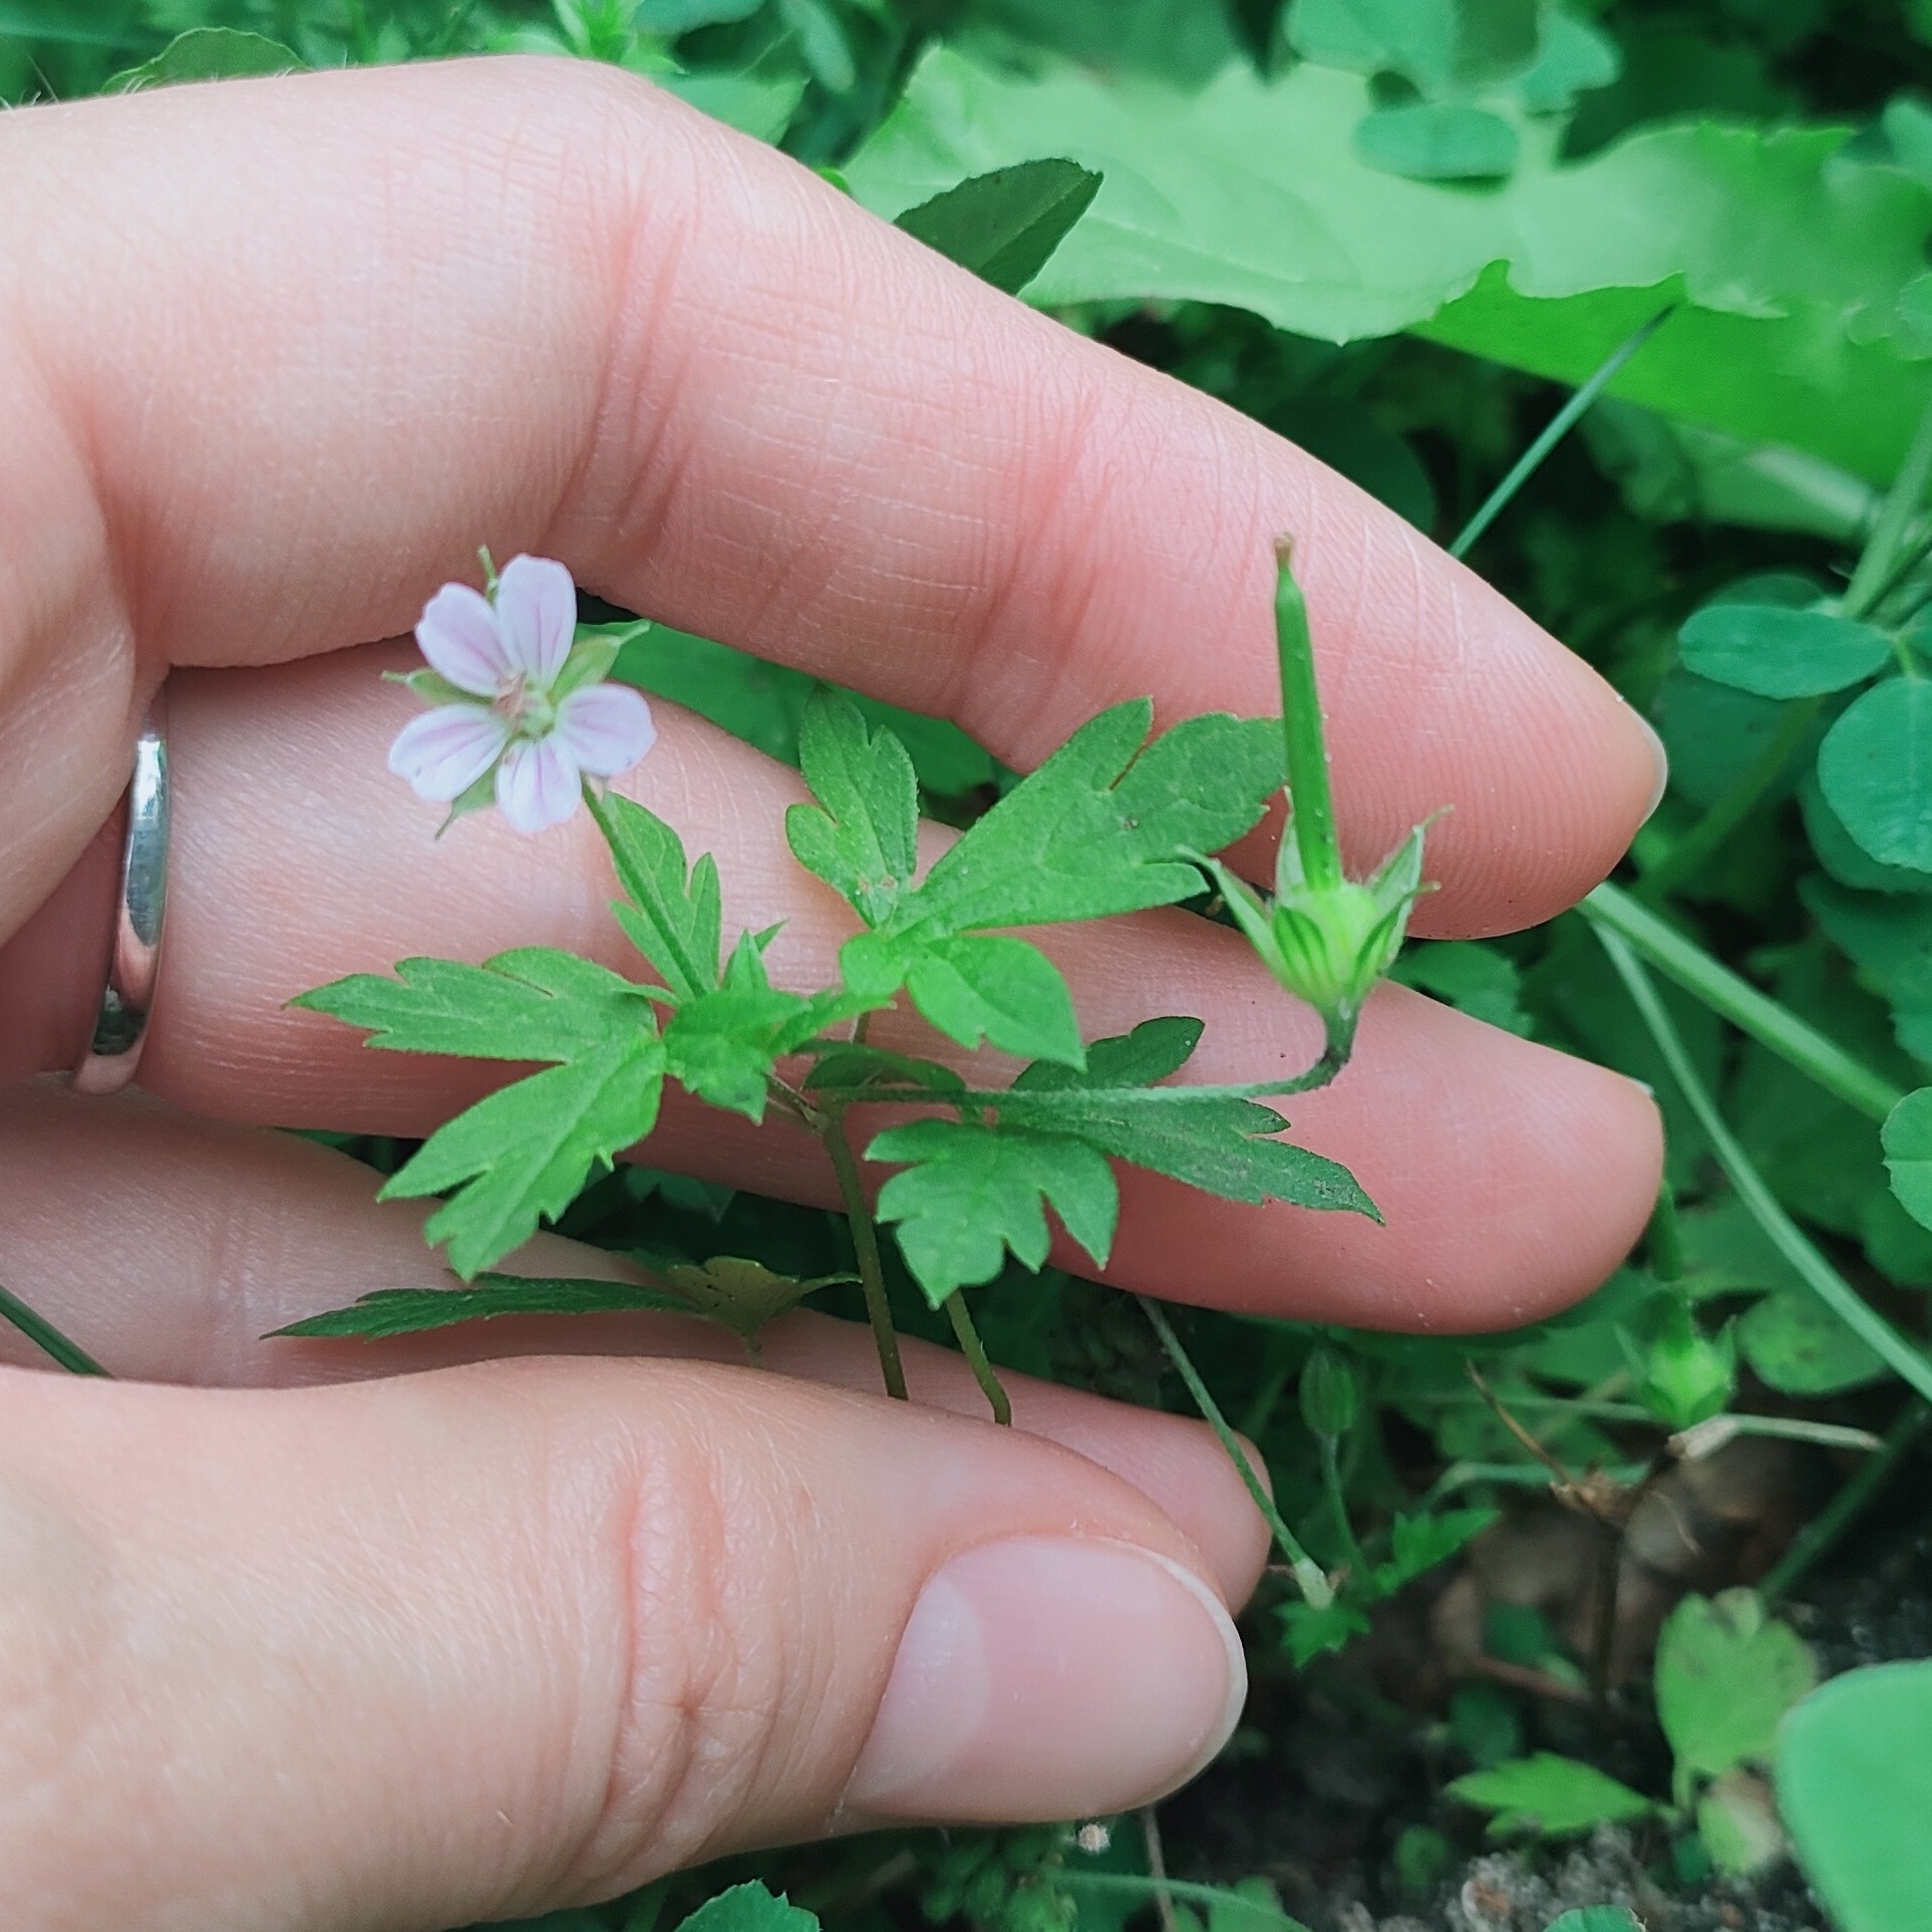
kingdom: Plantae
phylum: Tracheophyta
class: Magnoliopsida
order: Geraniales
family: Geraniaceae
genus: Geranium
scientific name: Geranium sibiricum
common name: Siberian crane's-bill
